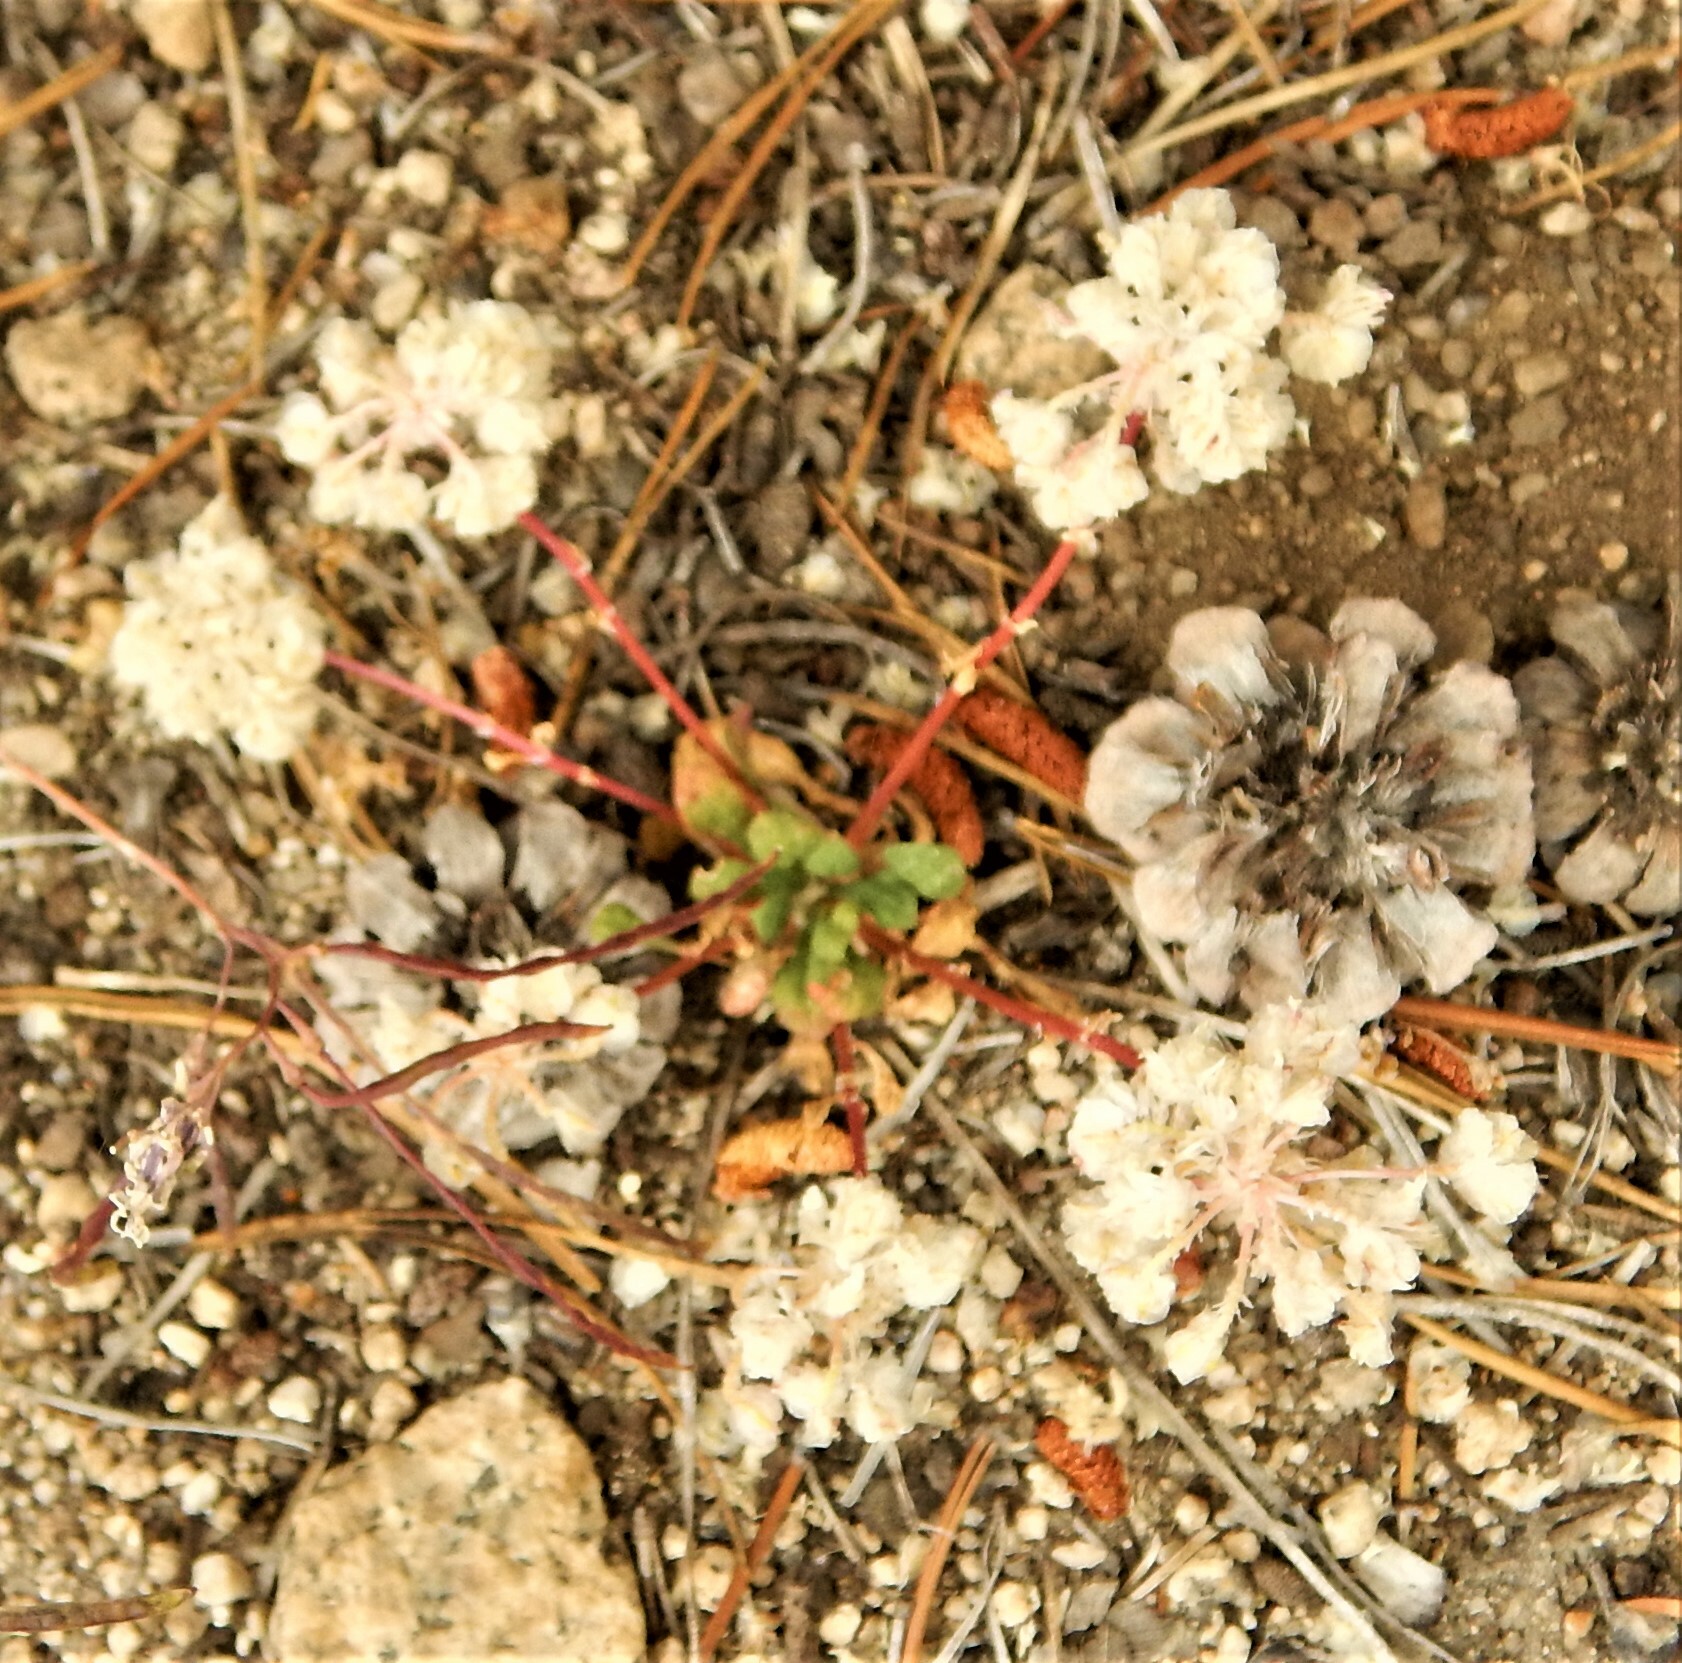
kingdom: Plantae
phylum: Tracheophyta
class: Magnoliopsida
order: Caryophyllales
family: Montiaceae
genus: Calyptridium
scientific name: Calyptridium monospermum
